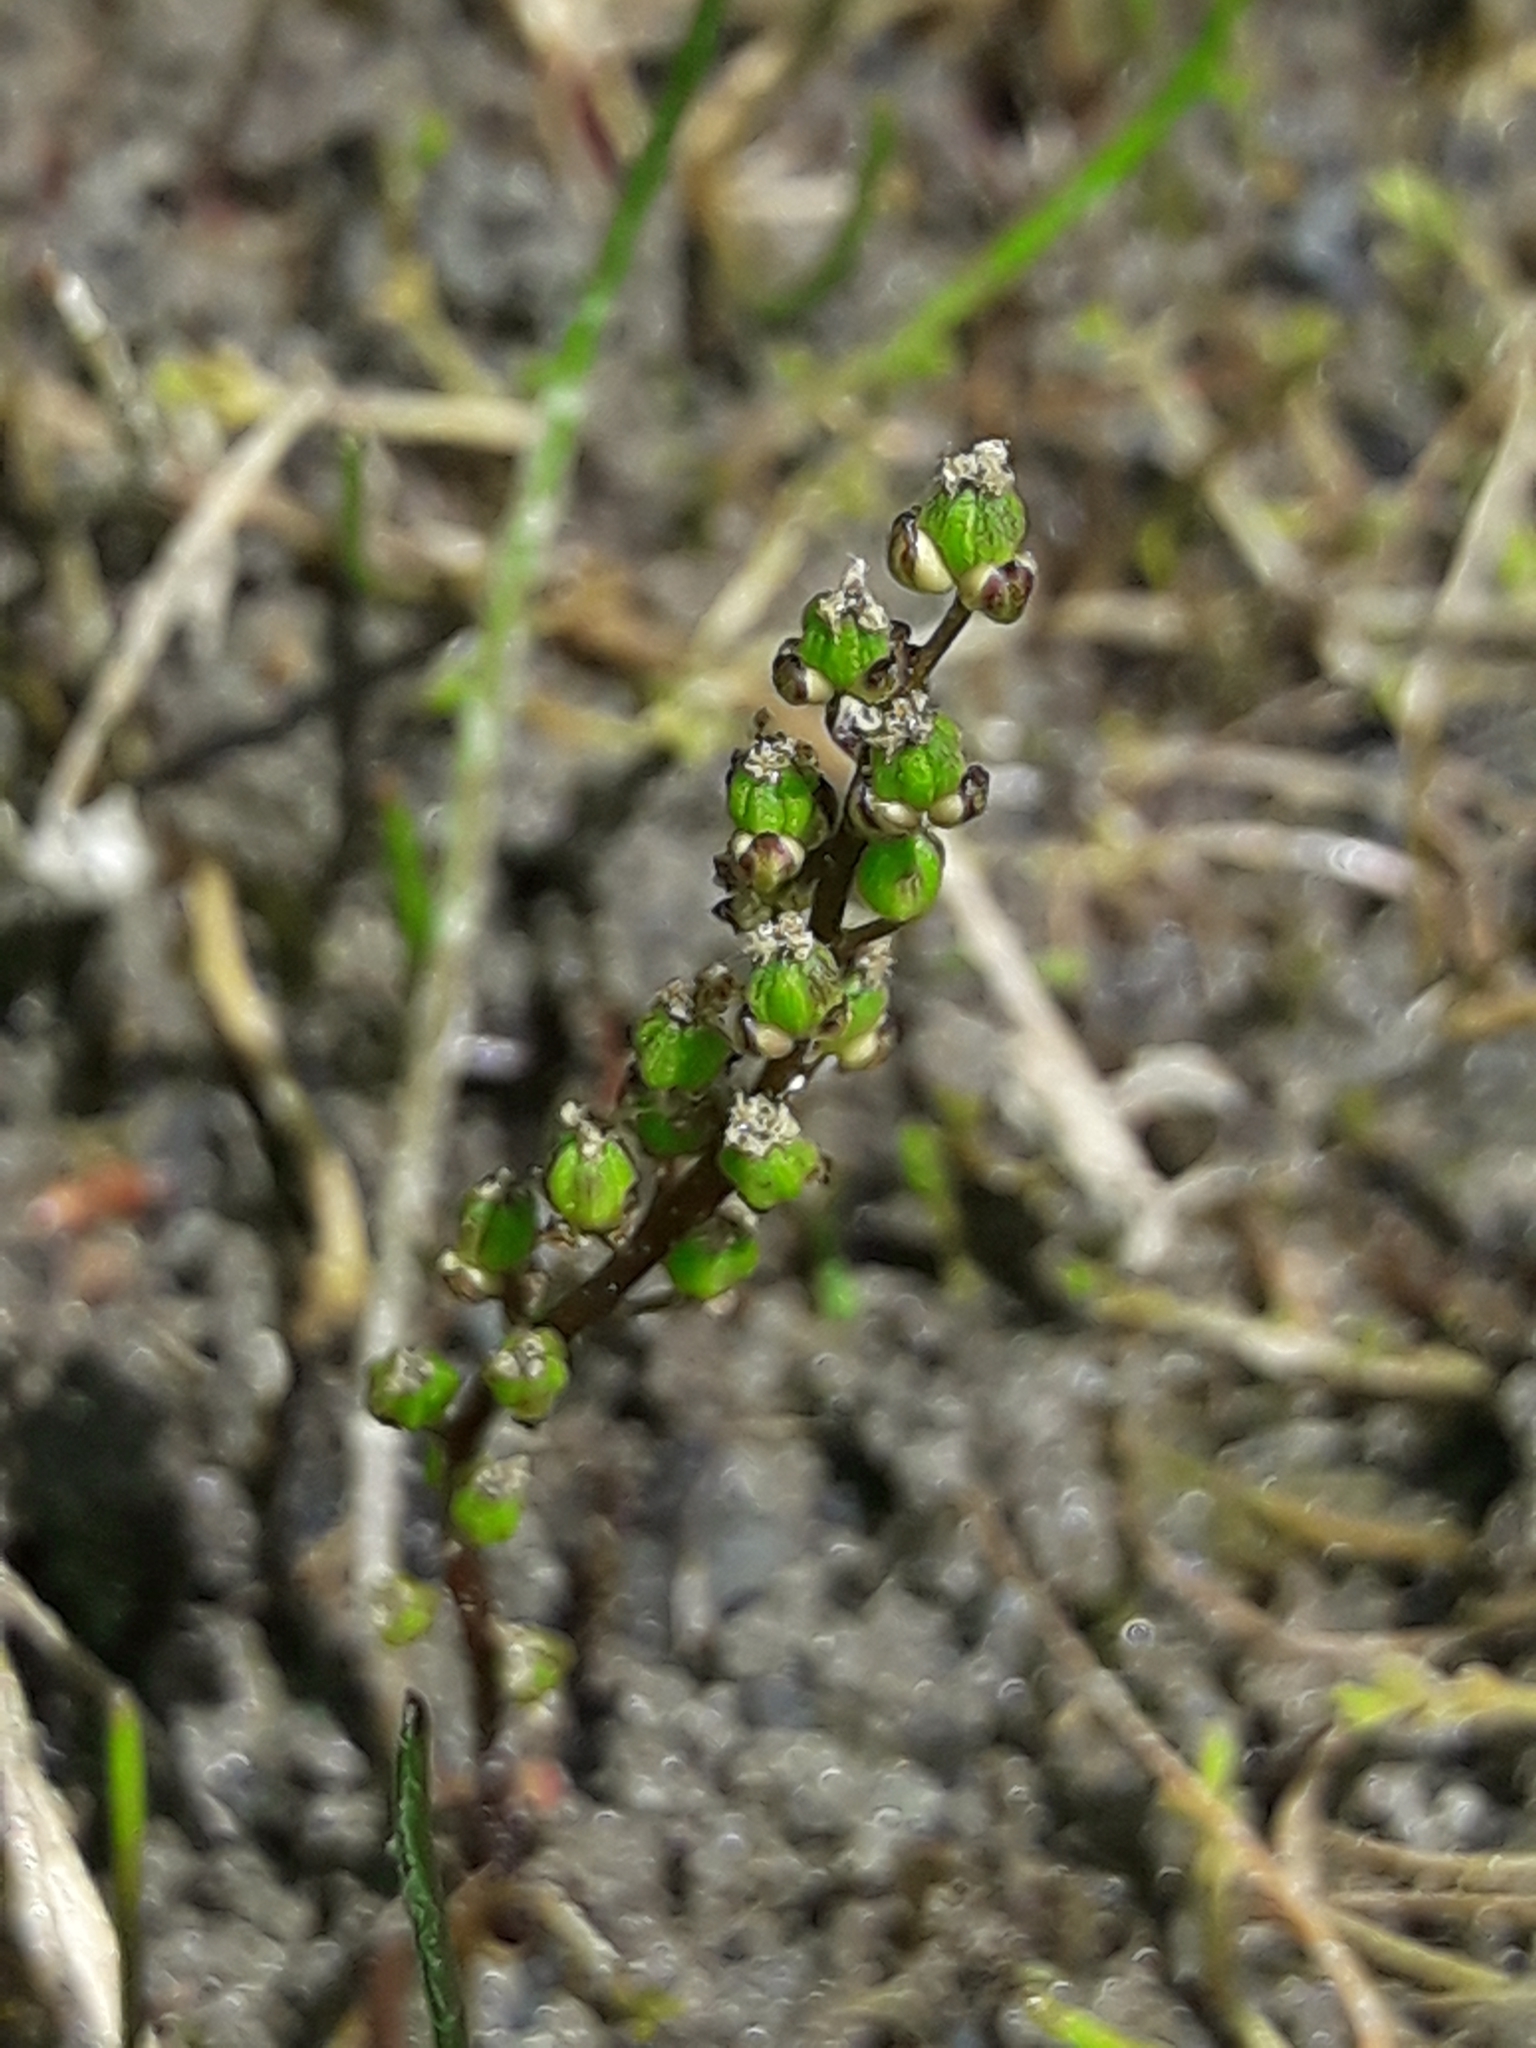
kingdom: Plantae
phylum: Tracheophyta
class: Liliopsida
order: Alismatales
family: Juncaginaceae
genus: Triglochin
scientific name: Triglochin striata
